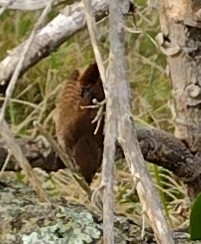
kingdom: Animalia
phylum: Chordata
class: Aves
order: Passeriformes
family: Troglodytidae
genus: Troglodytes
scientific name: Troglodytes troglodytes
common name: Eurasian wren
